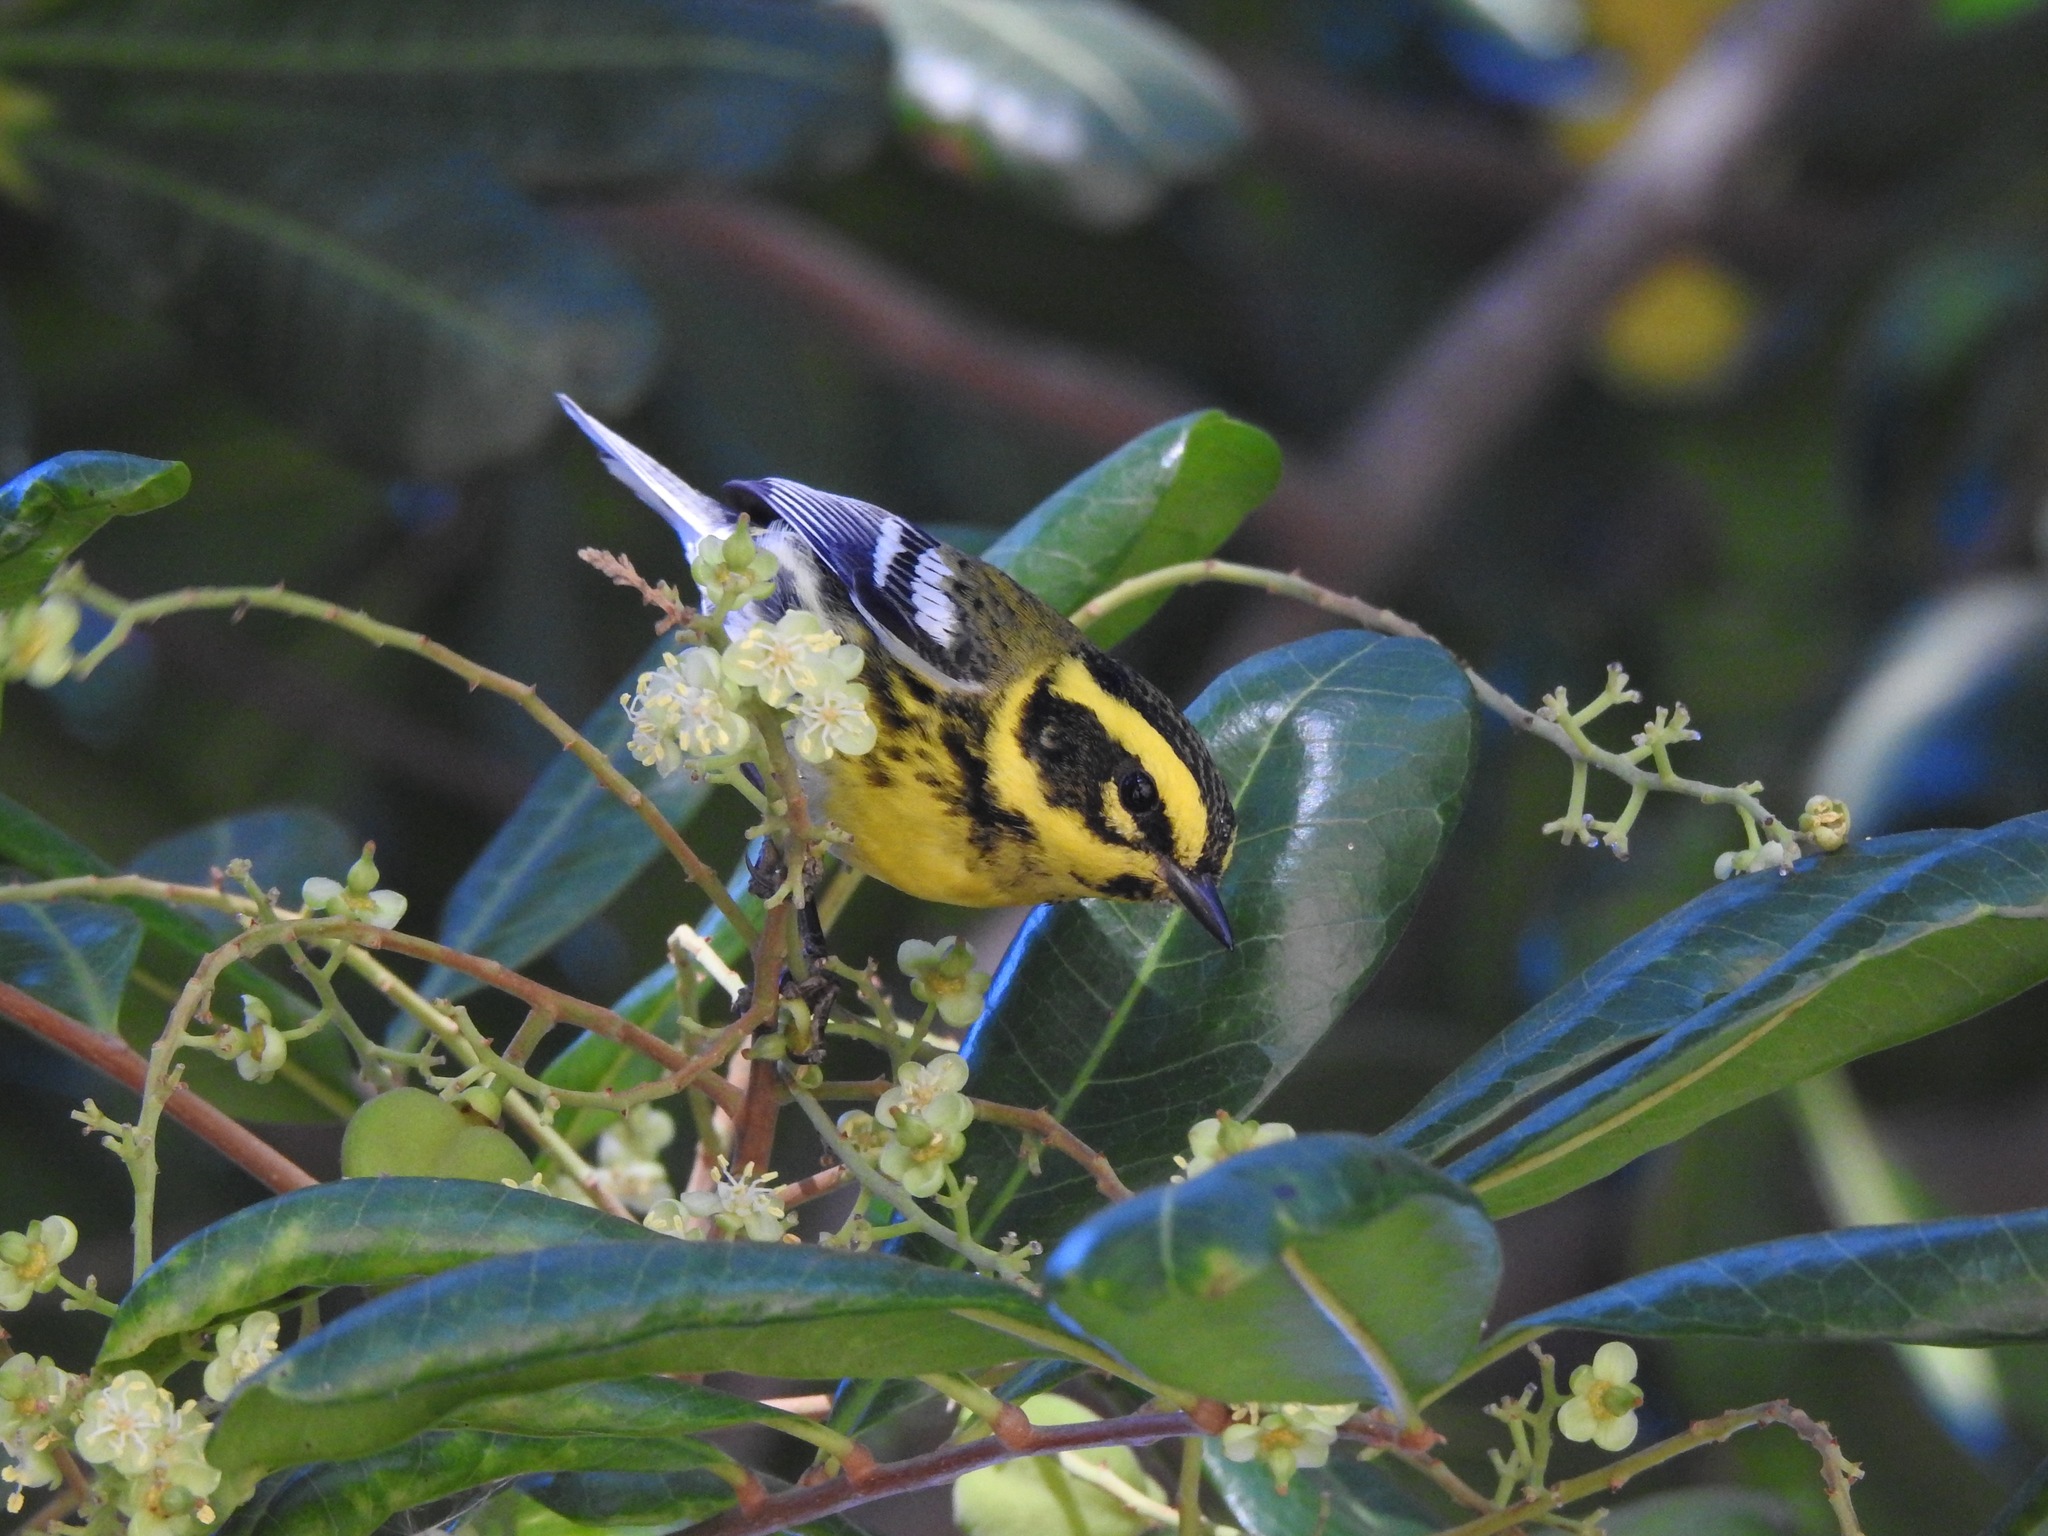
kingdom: Animalia
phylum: Chordata
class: Aves
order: Passeriformes
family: Parulidae
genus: Setophaga
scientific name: Setophaga townsendi
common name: Townsend's warbler
